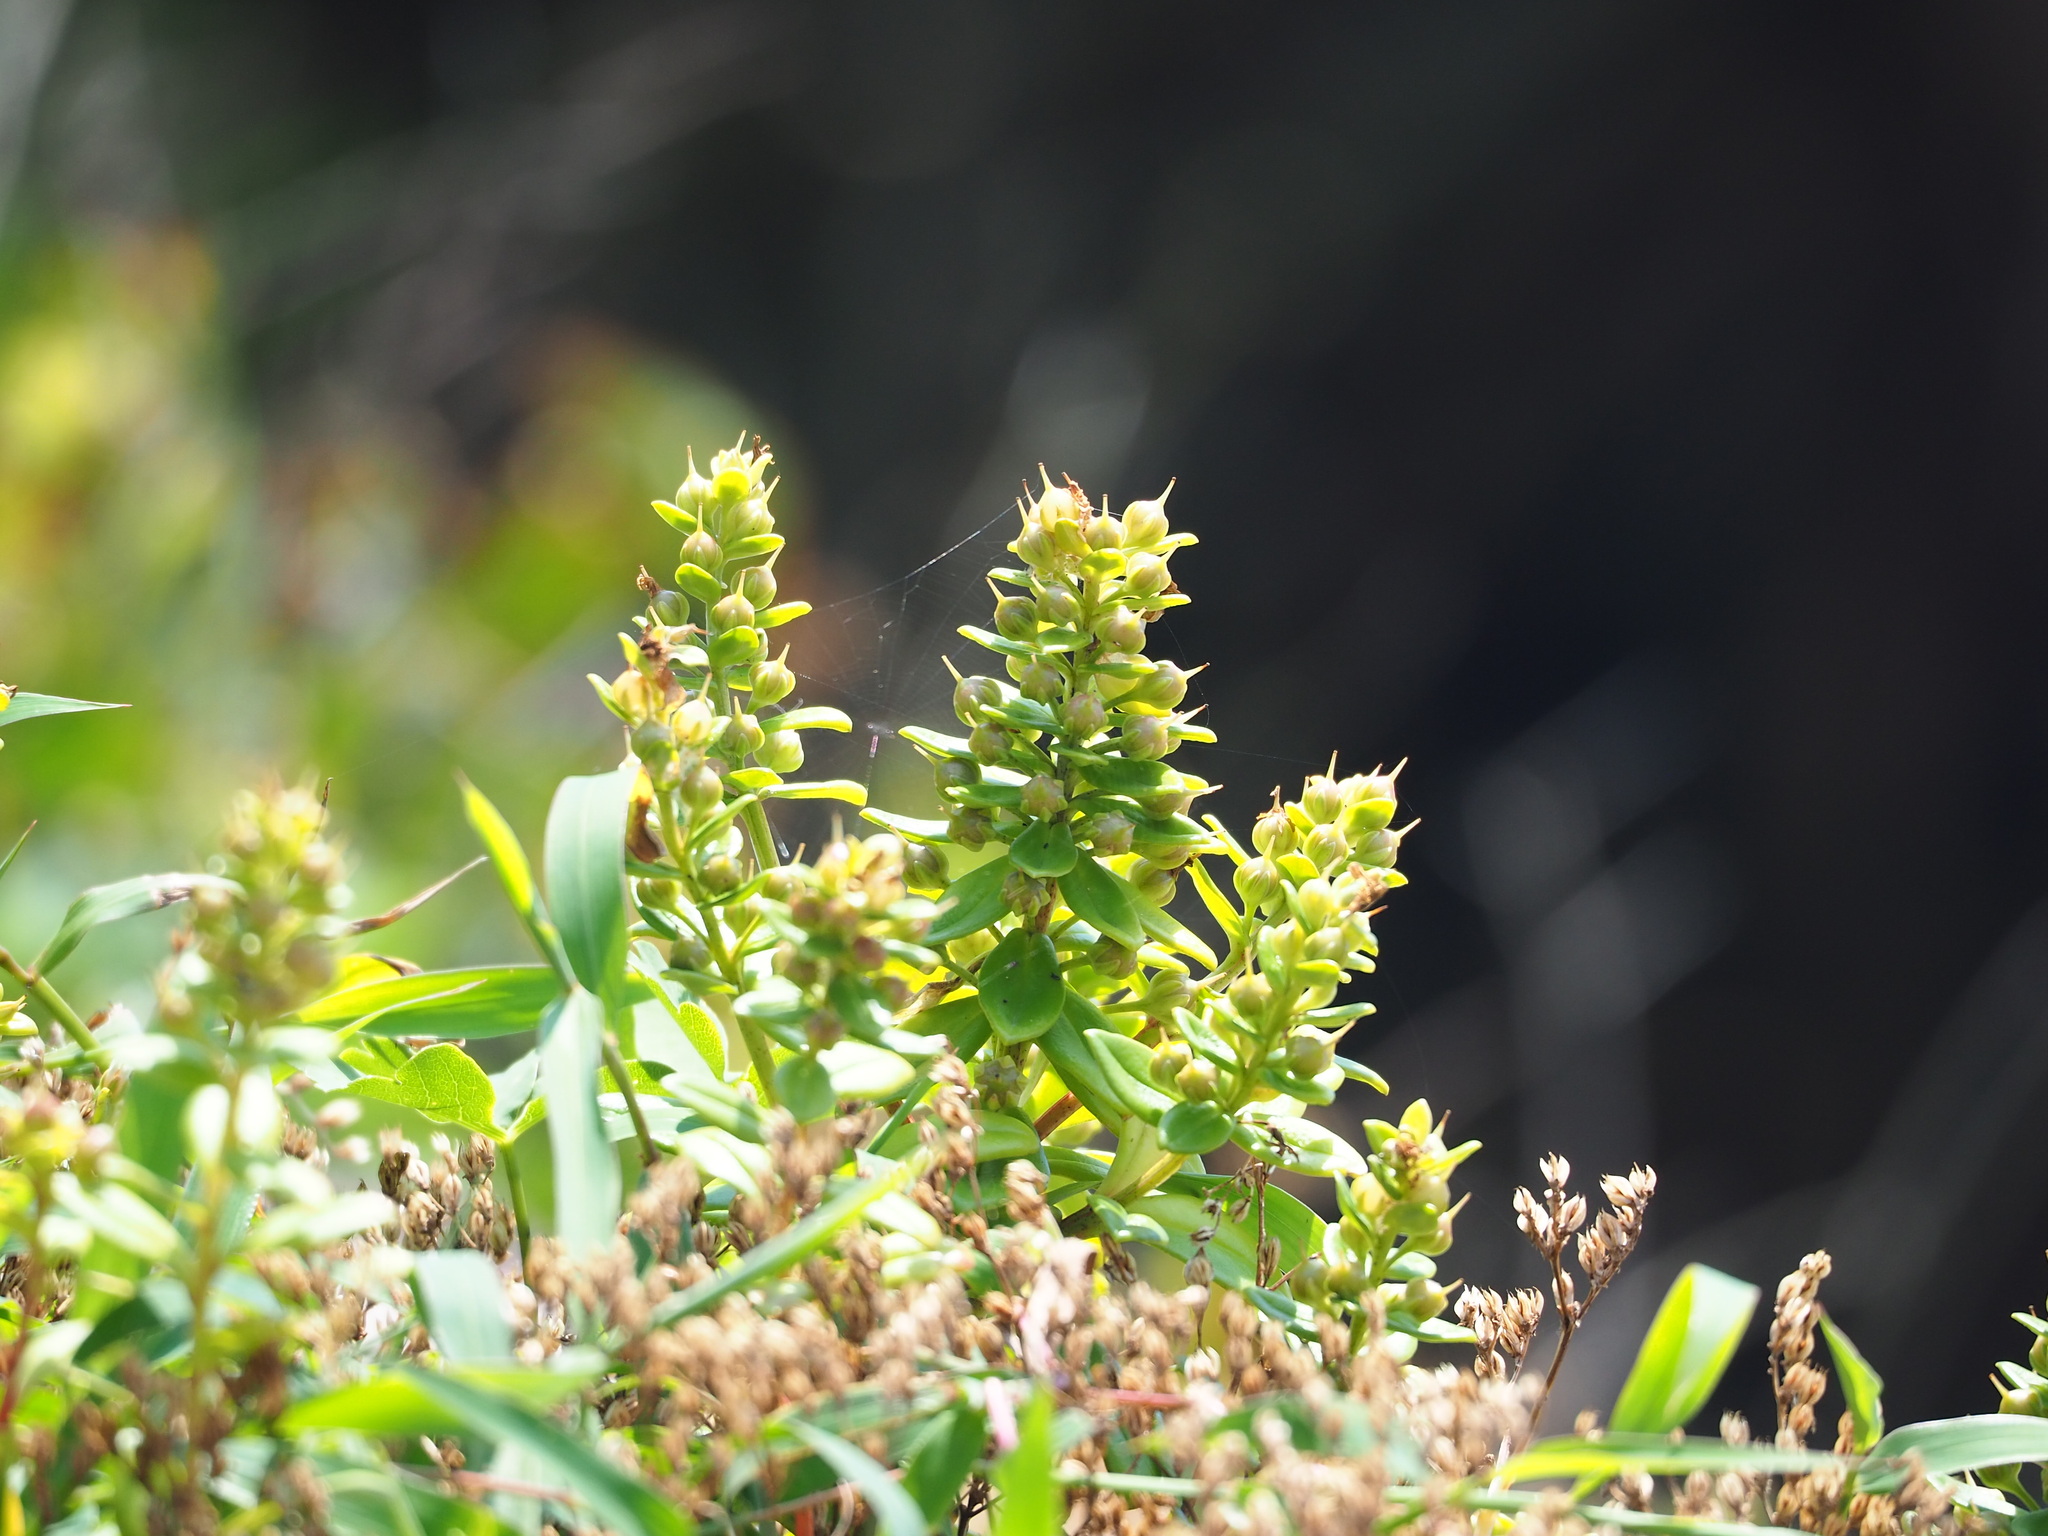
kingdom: Plantae
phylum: Tracheophyta
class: Magnoliopsida
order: Ericales
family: Primulaceae
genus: Lysimachia
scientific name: Lysimachia mauritiana
